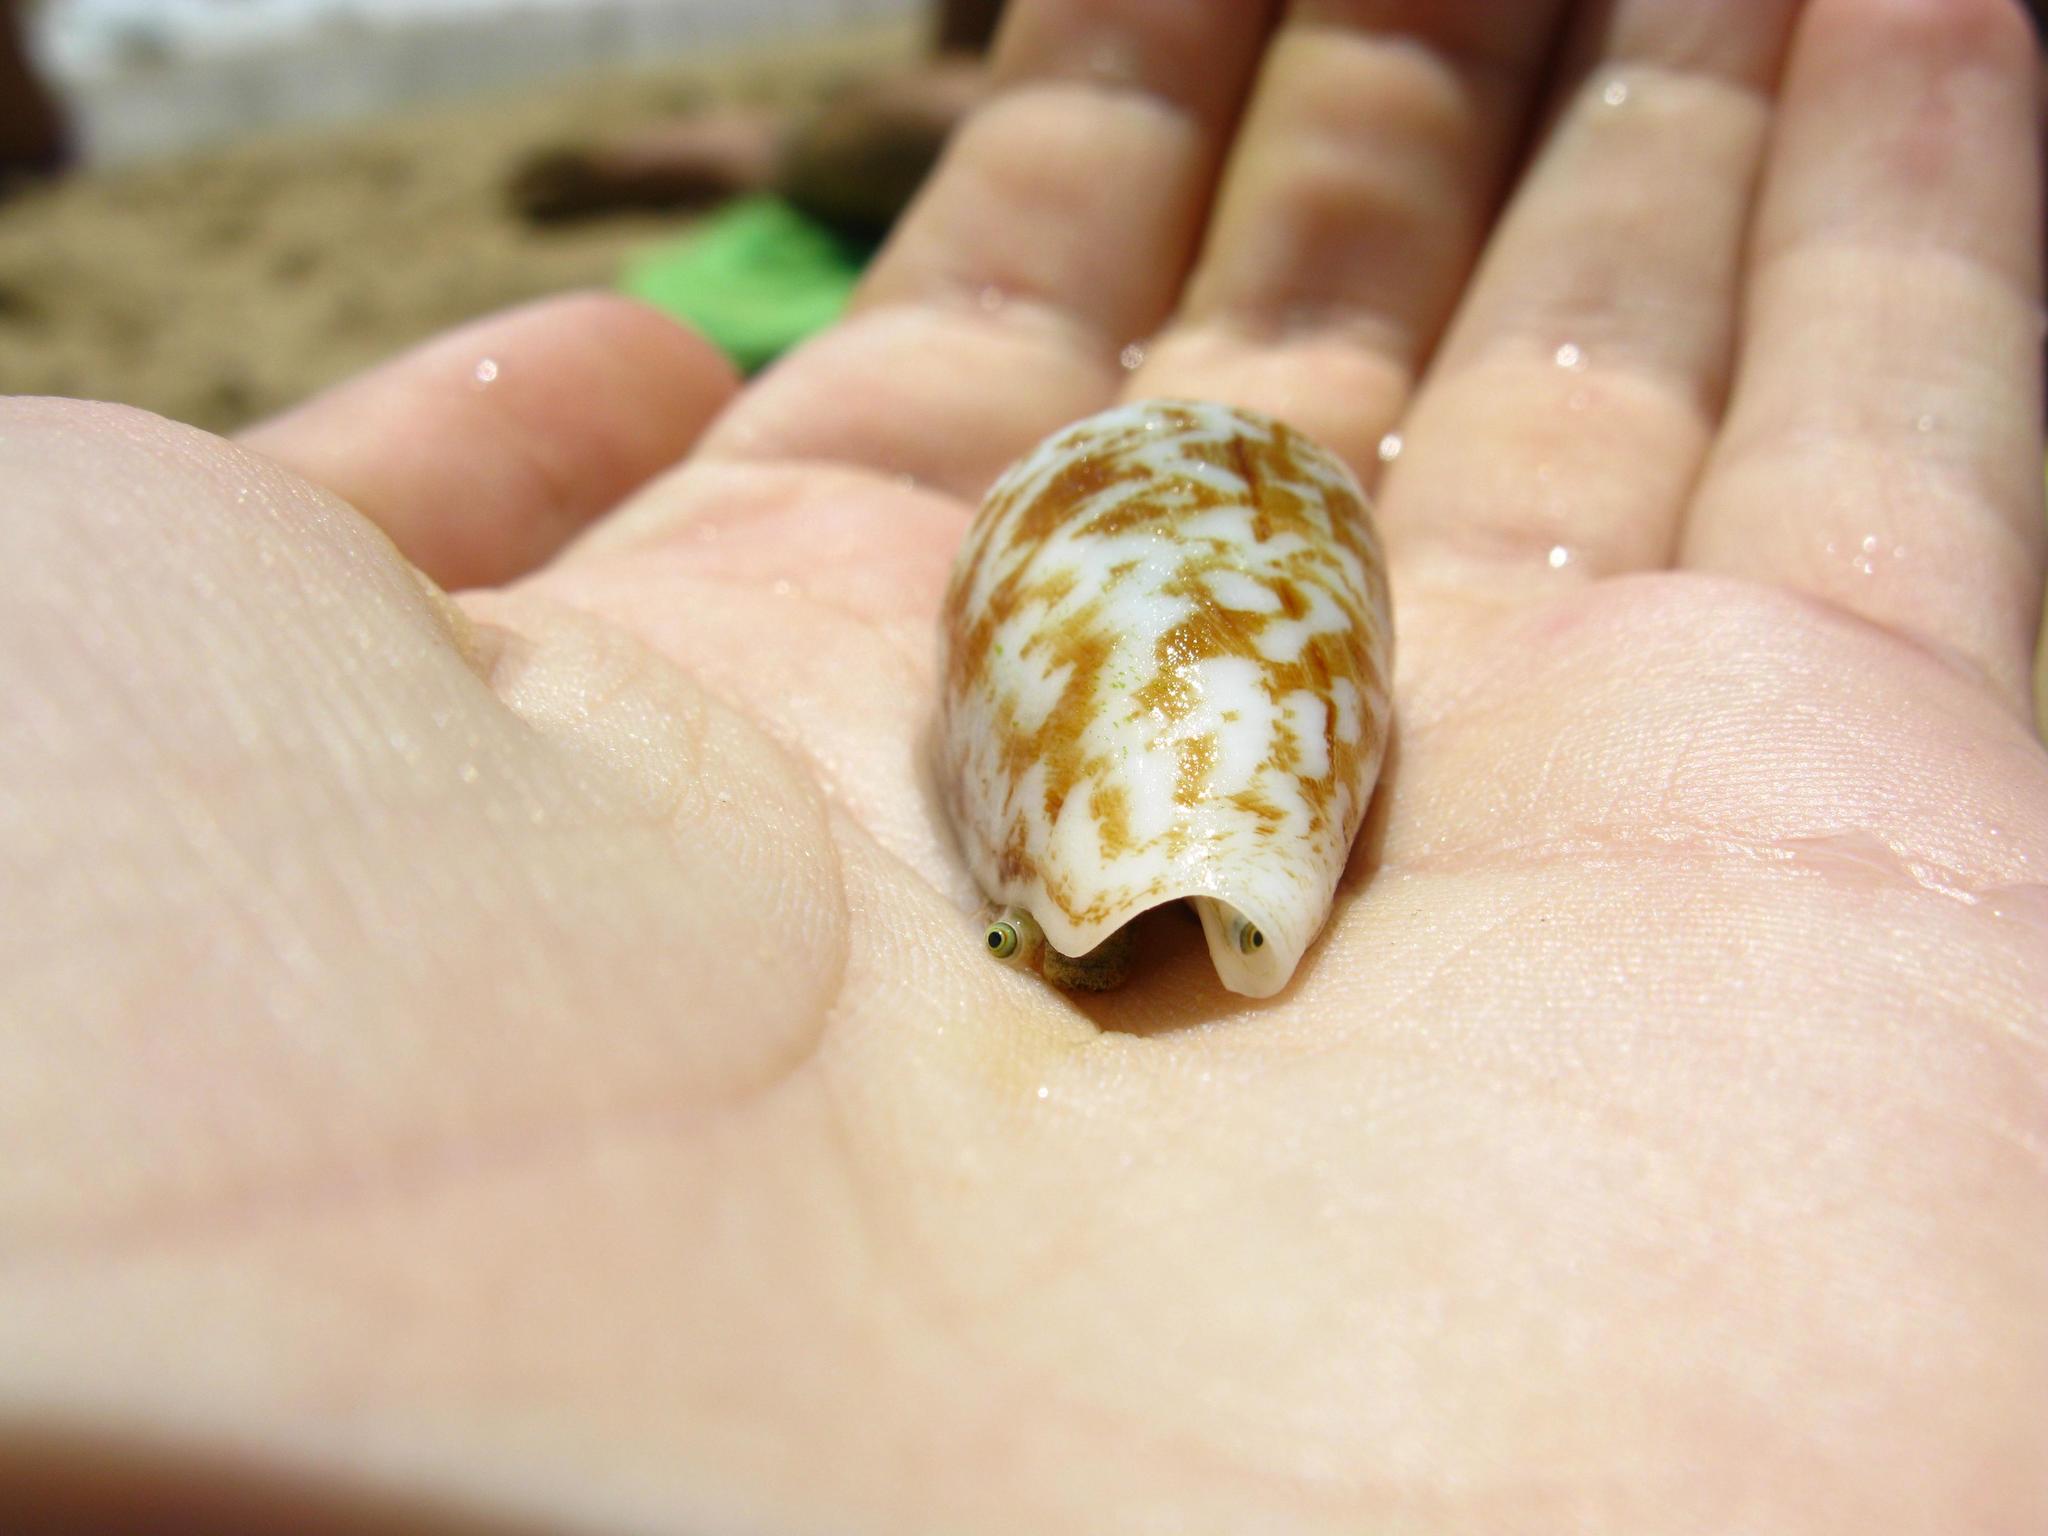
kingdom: Animalia
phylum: Mollusca
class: Gastropoda
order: Littorinimorpha
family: Strombidae
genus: Conomurex
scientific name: Conomurex persicus
